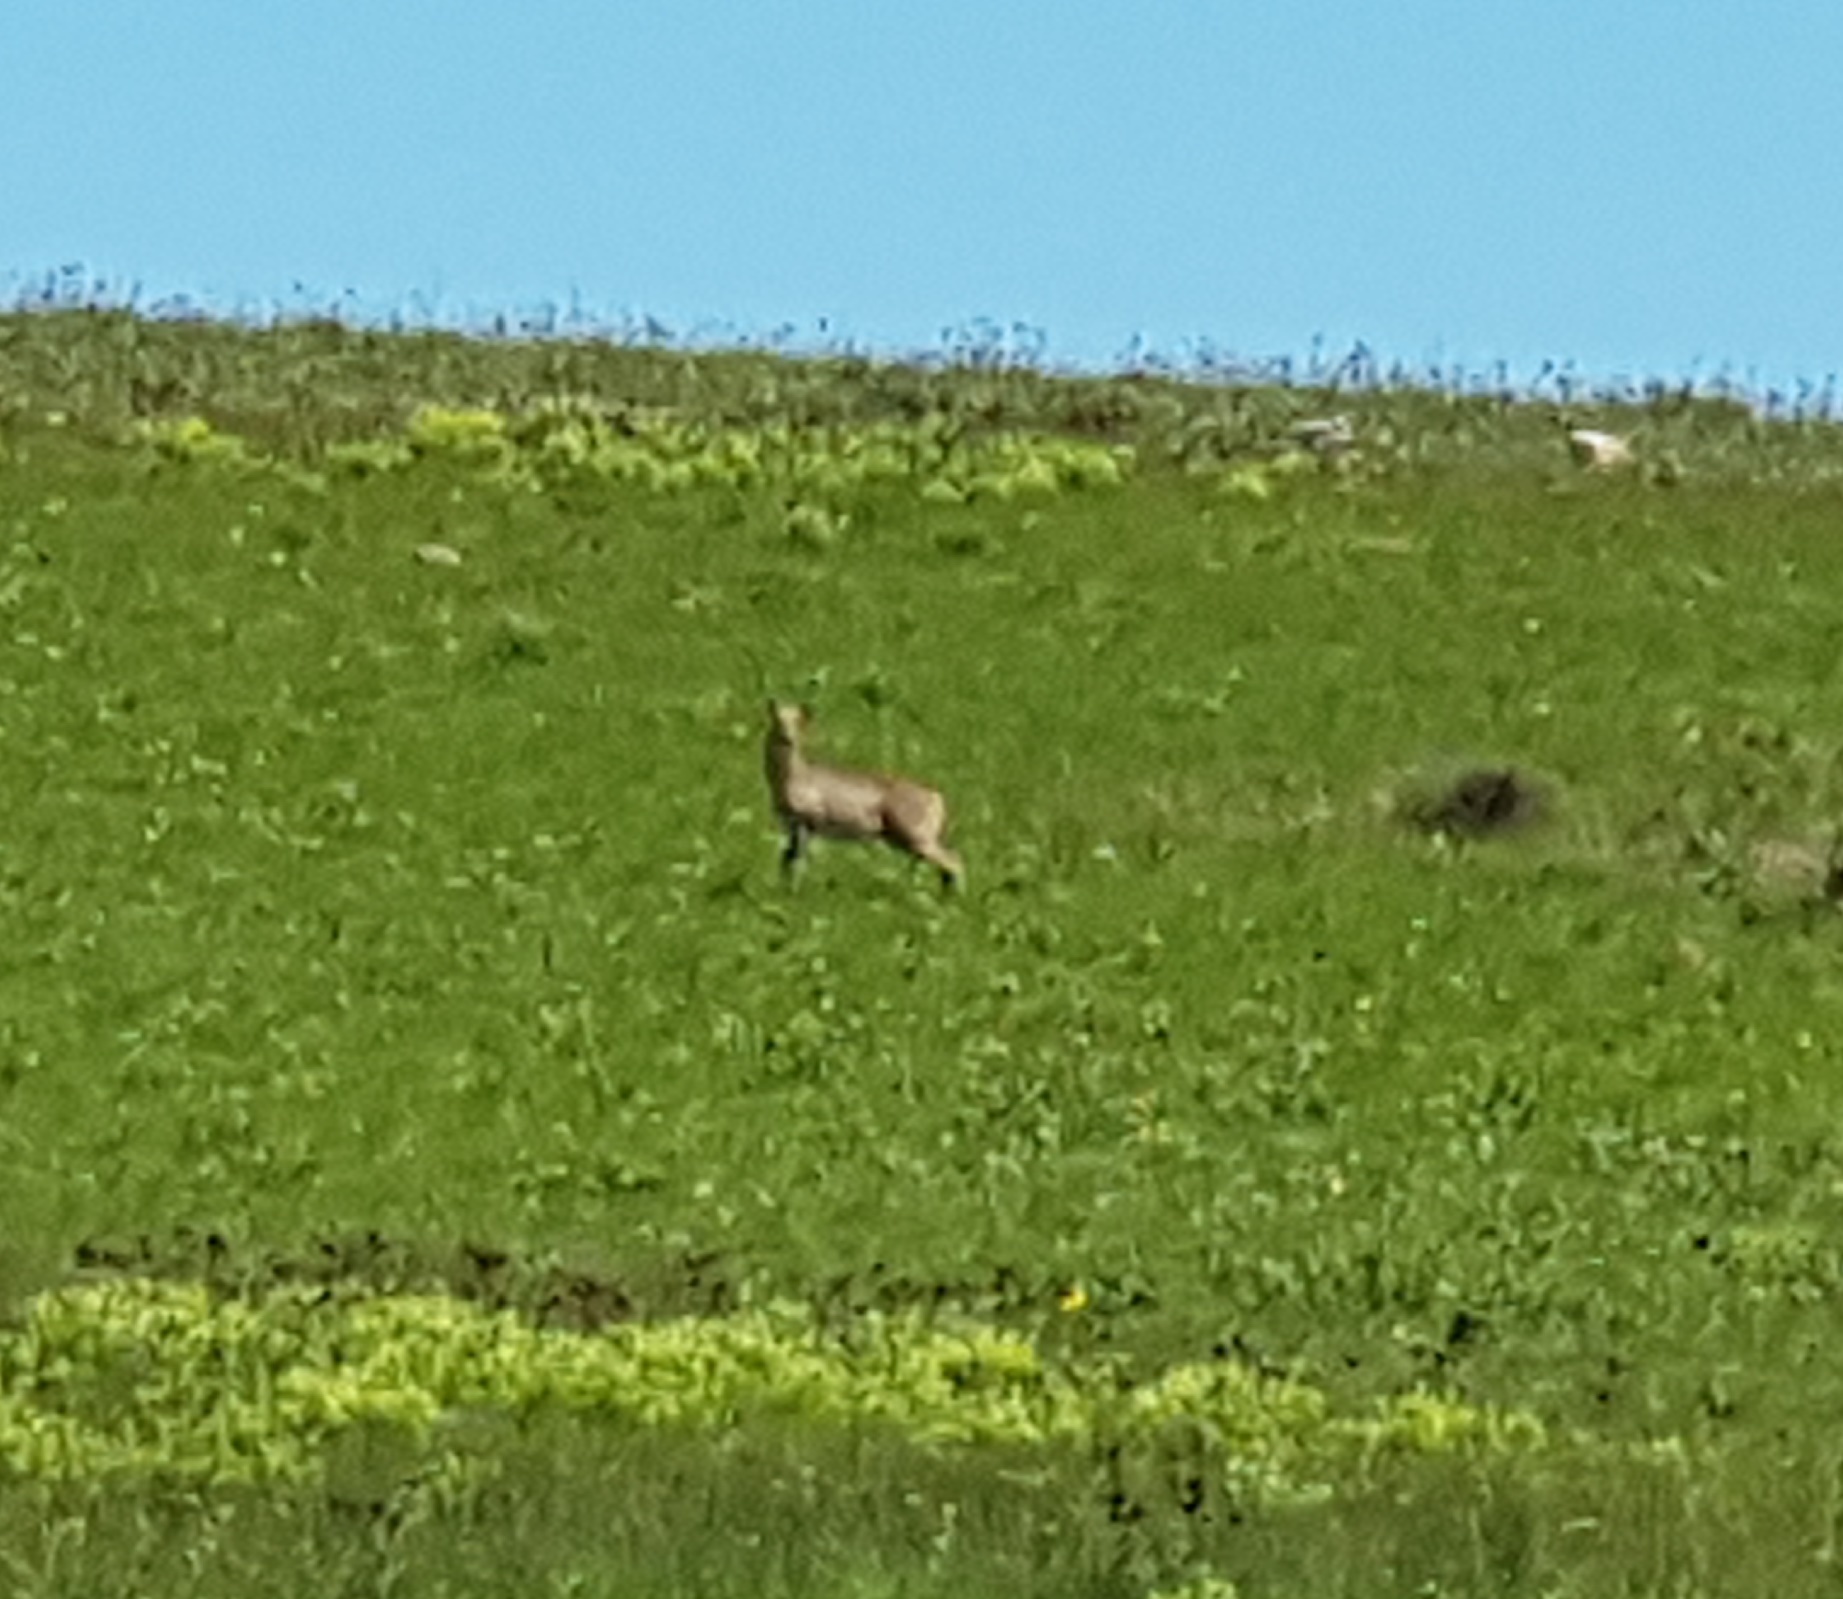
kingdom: Animalia
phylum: Chordata
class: Mammalia
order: Artiodactyla
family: Bovidae
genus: Redunca
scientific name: Redunca arundinum
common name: Southern reedbuck
